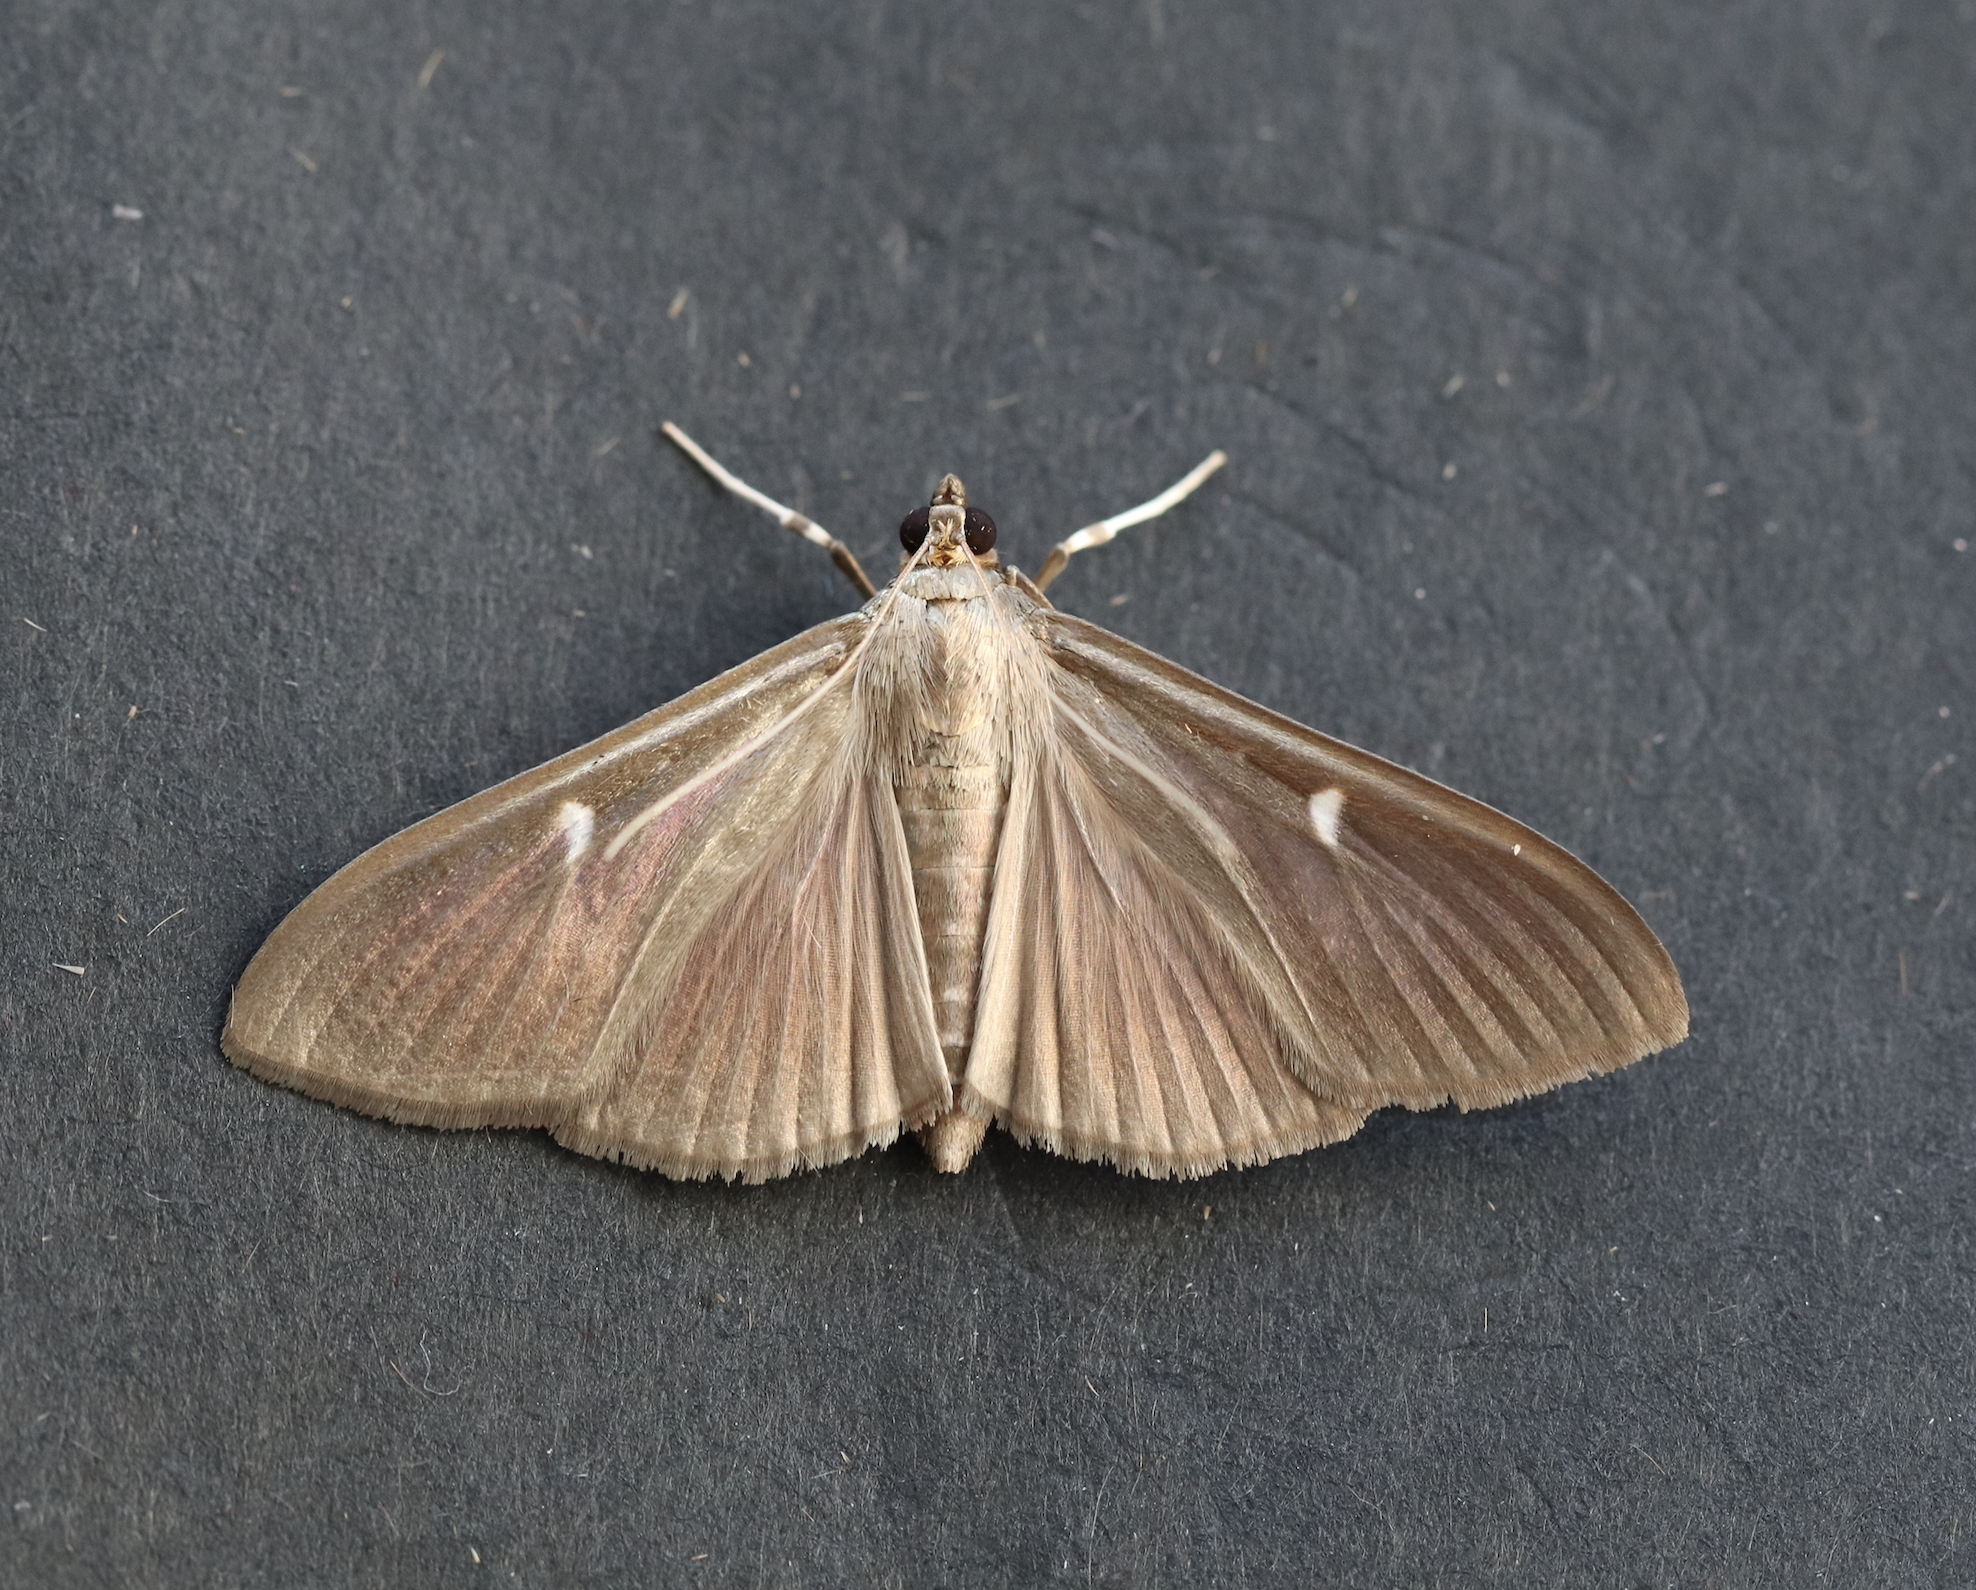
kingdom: Animalia
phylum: Arthropoda
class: Insecta
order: Lepidoptera
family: Crambidae
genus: Cydalima
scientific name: Cydalima perspectalis
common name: Box tree moth
